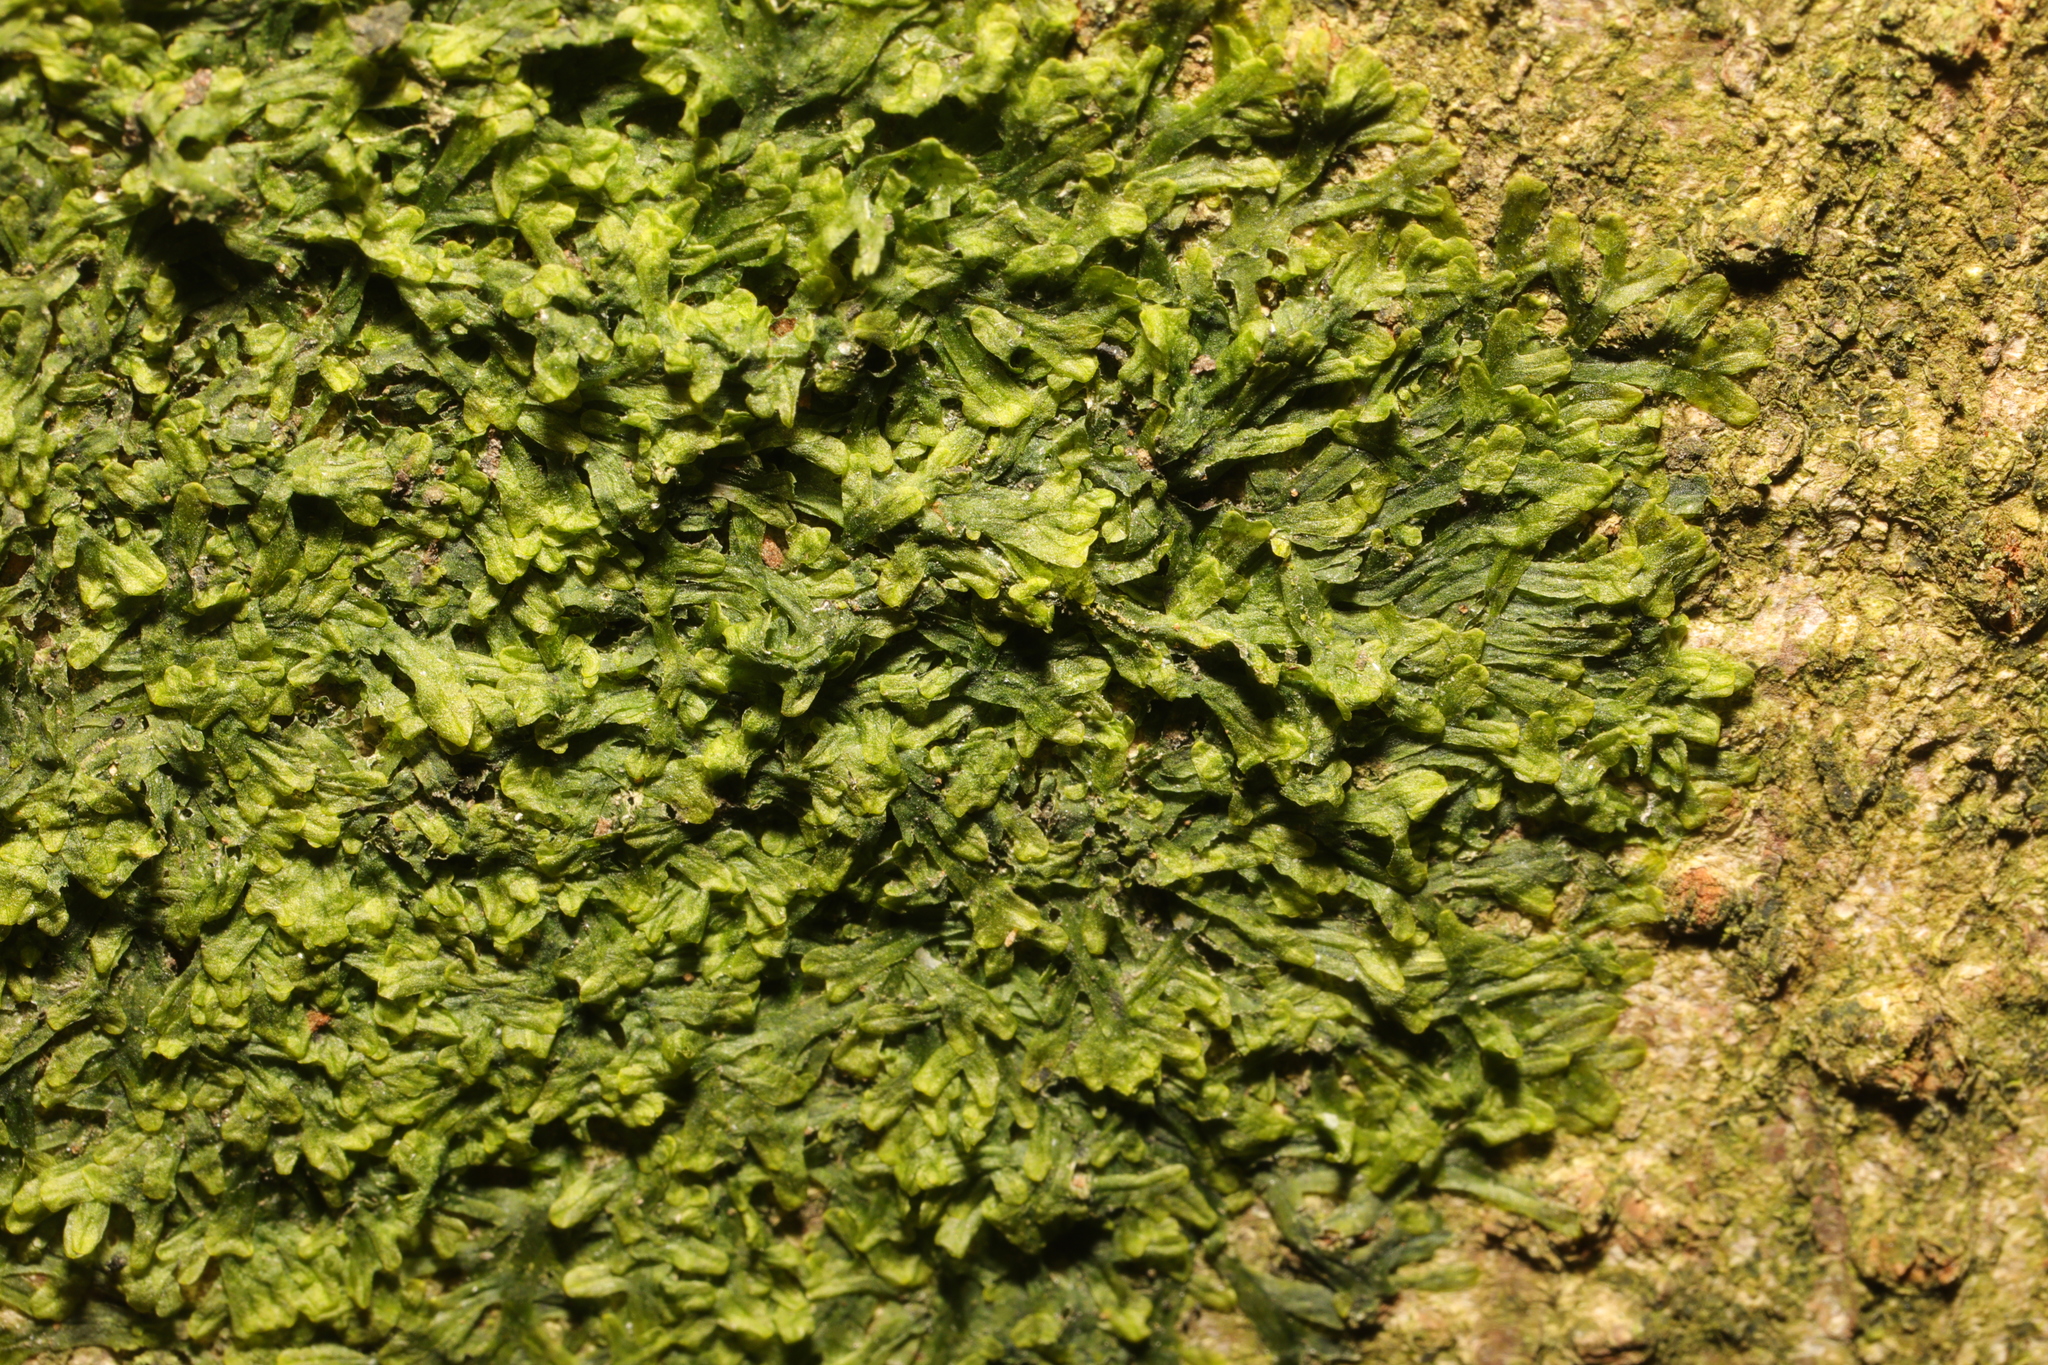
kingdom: Plantae
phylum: Marchantiophyta
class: Jungermanniopsida
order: Metzgeriales
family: Metzgeriaceae
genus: Metzgeria
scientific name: Metzgeria furcata
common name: Forked veilwort
